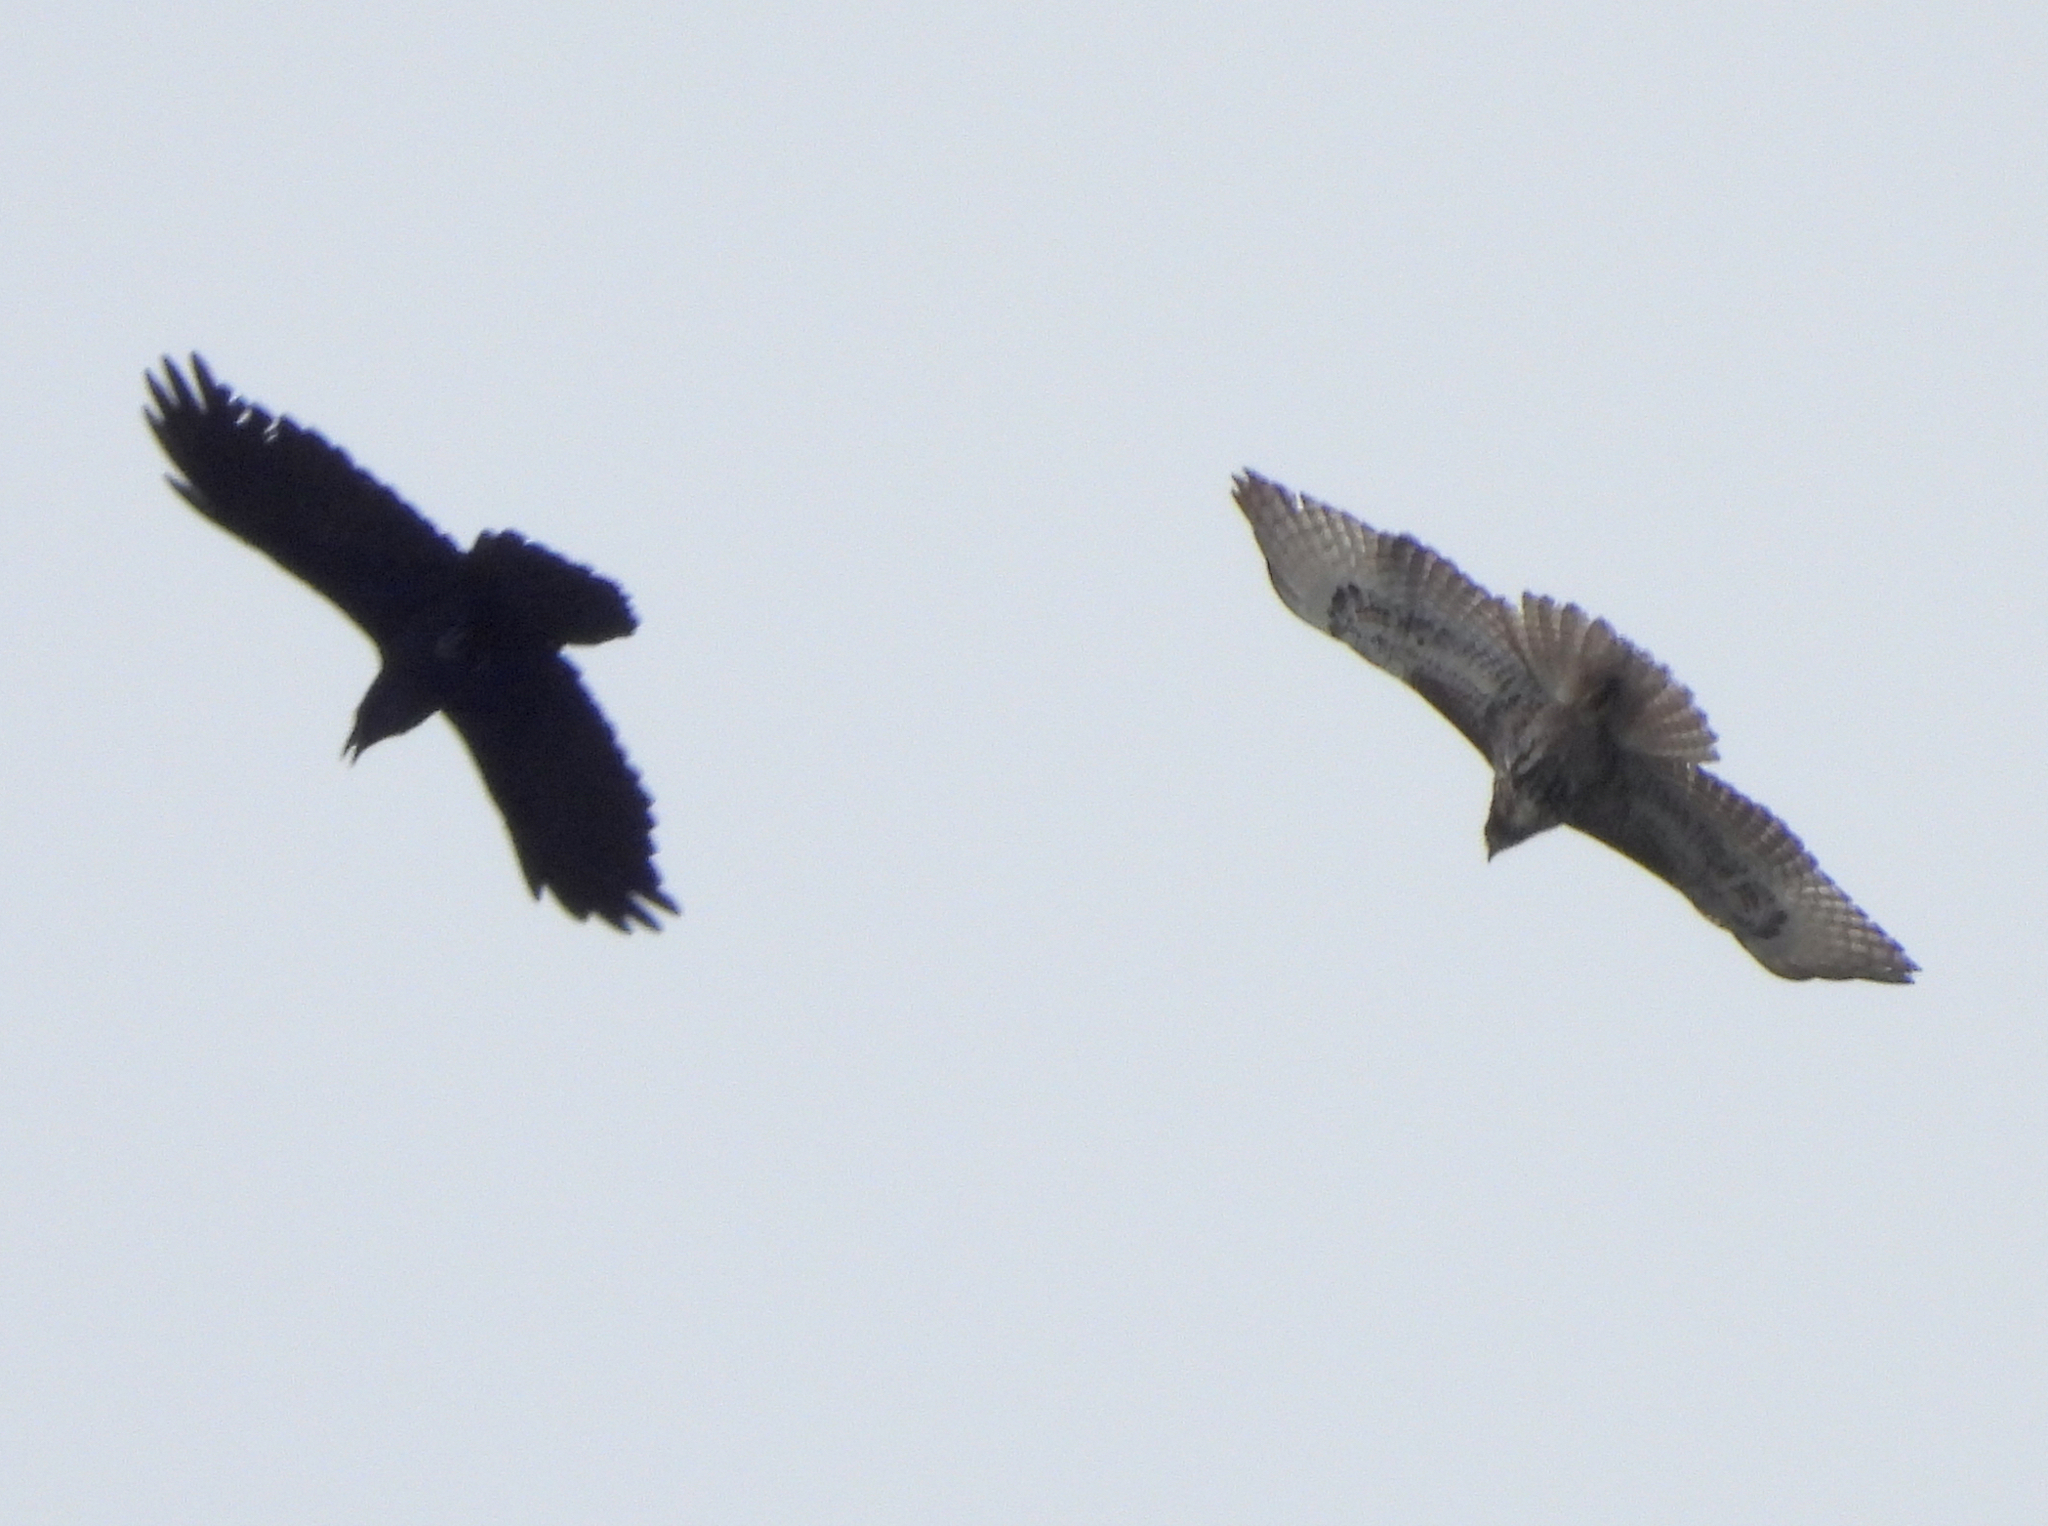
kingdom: Animalia
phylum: Chordata
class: Aves
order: Accipitriformes
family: Accipitridae
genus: Buteo
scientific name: Buteo jamaicensis
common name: Red-tailed hawk
